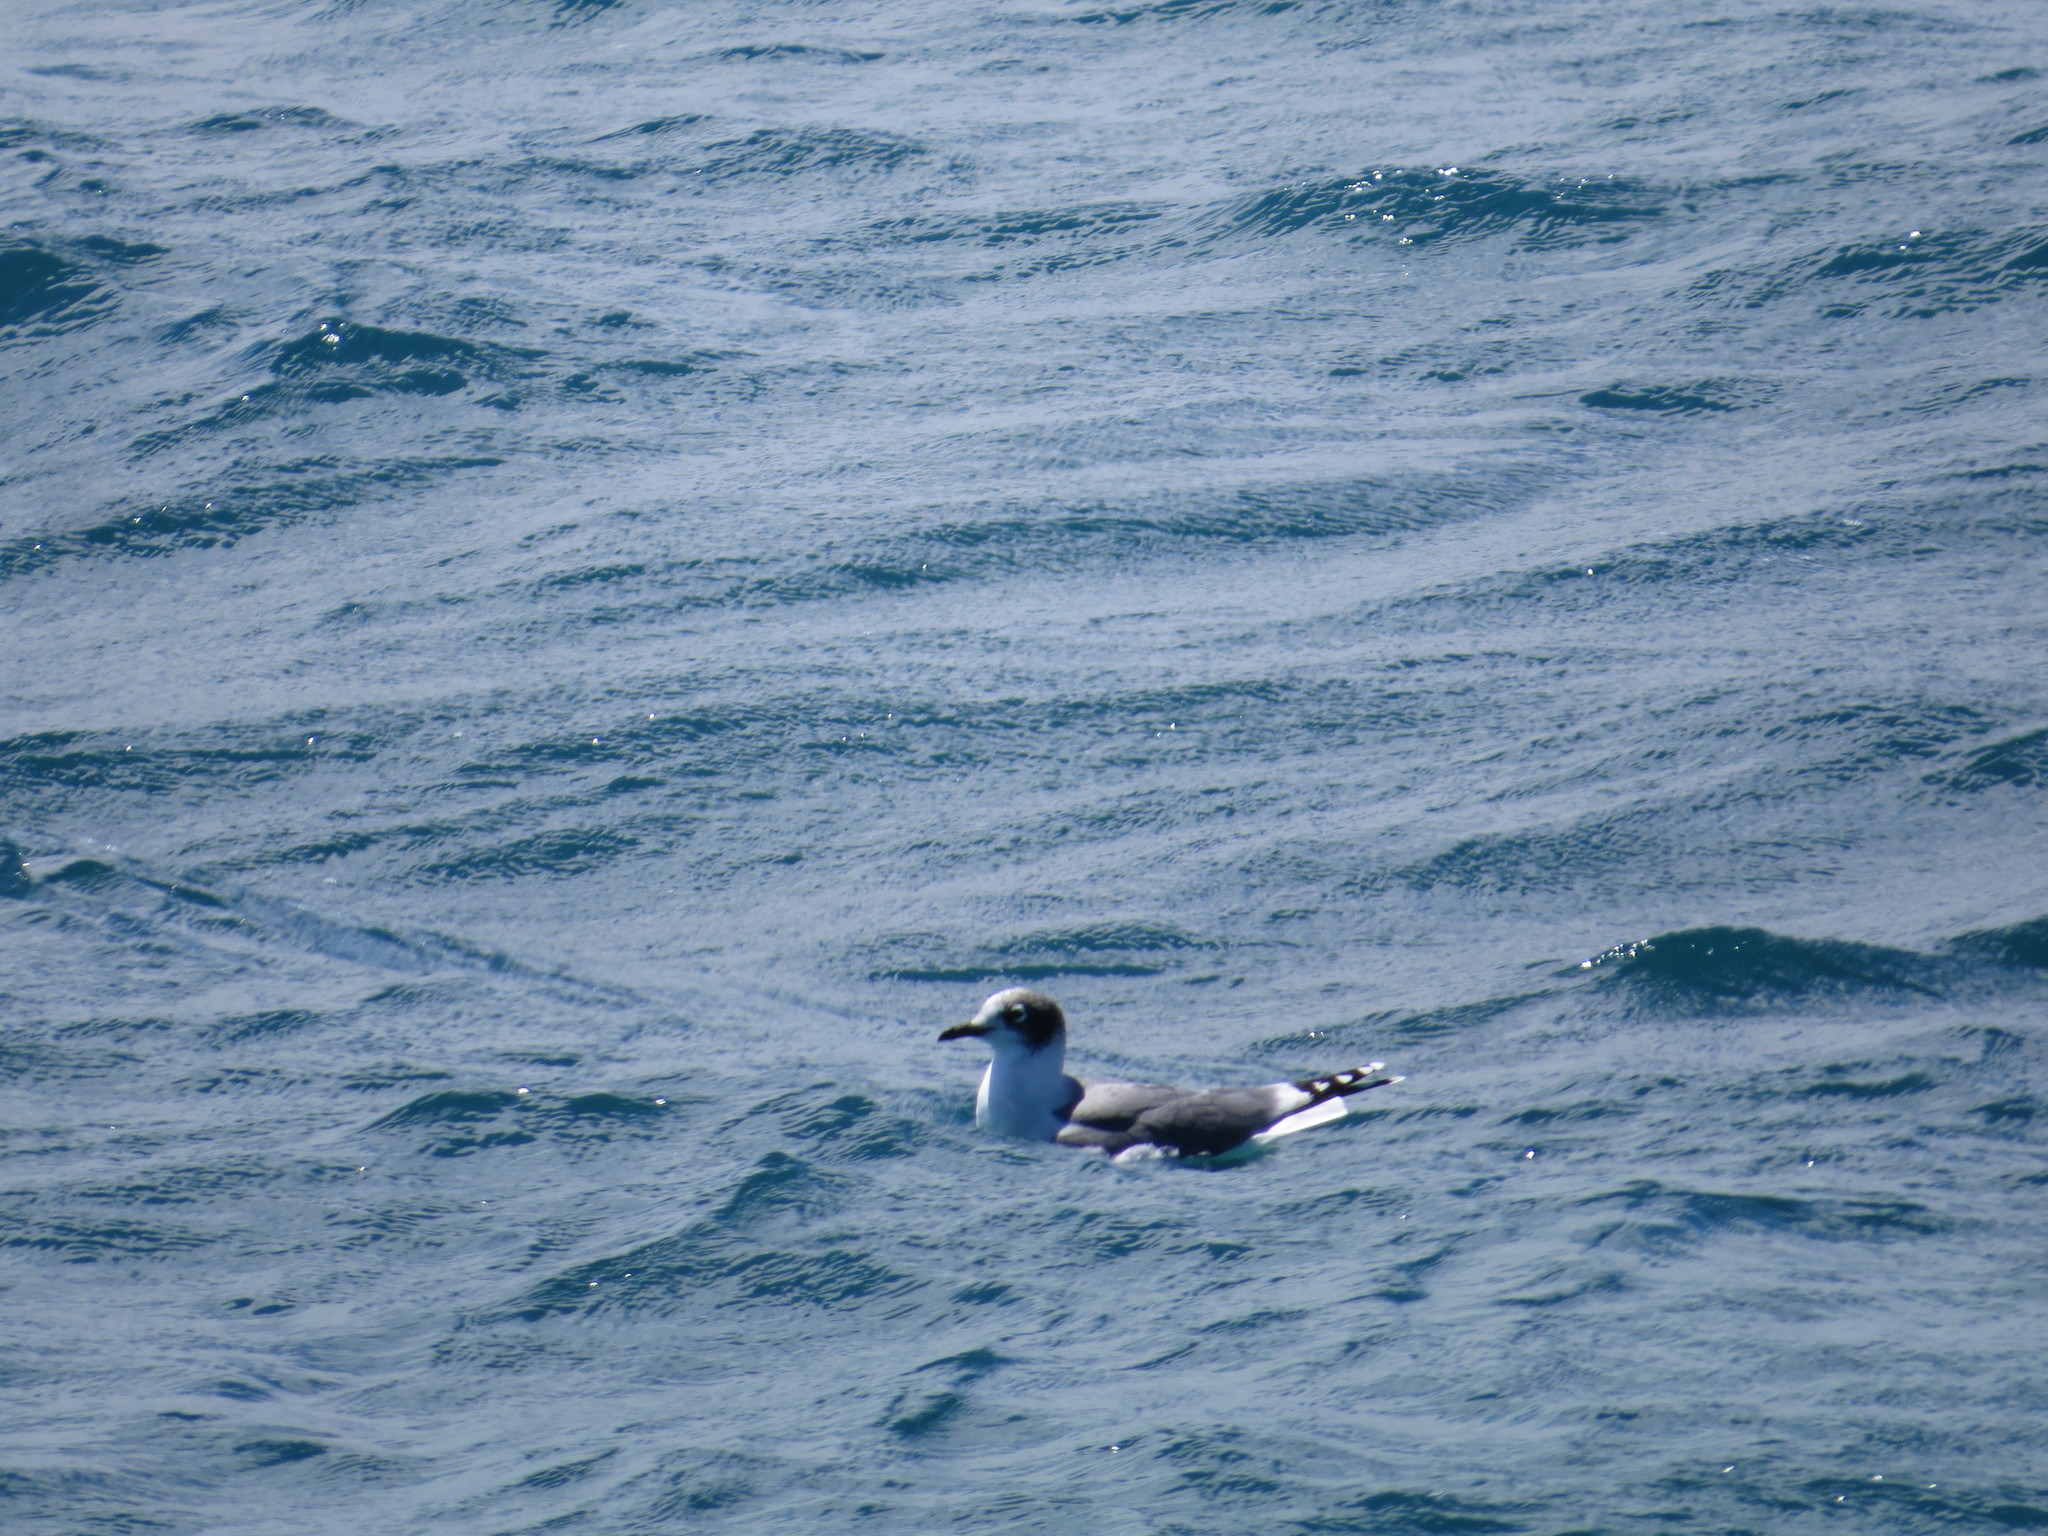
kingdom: Animalia
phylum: Chordata
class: Aves
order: Charadriiformes
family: Laridae
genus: Leucophaeus
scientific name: Leucophaeus pipixcan
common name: Franklin's gull
